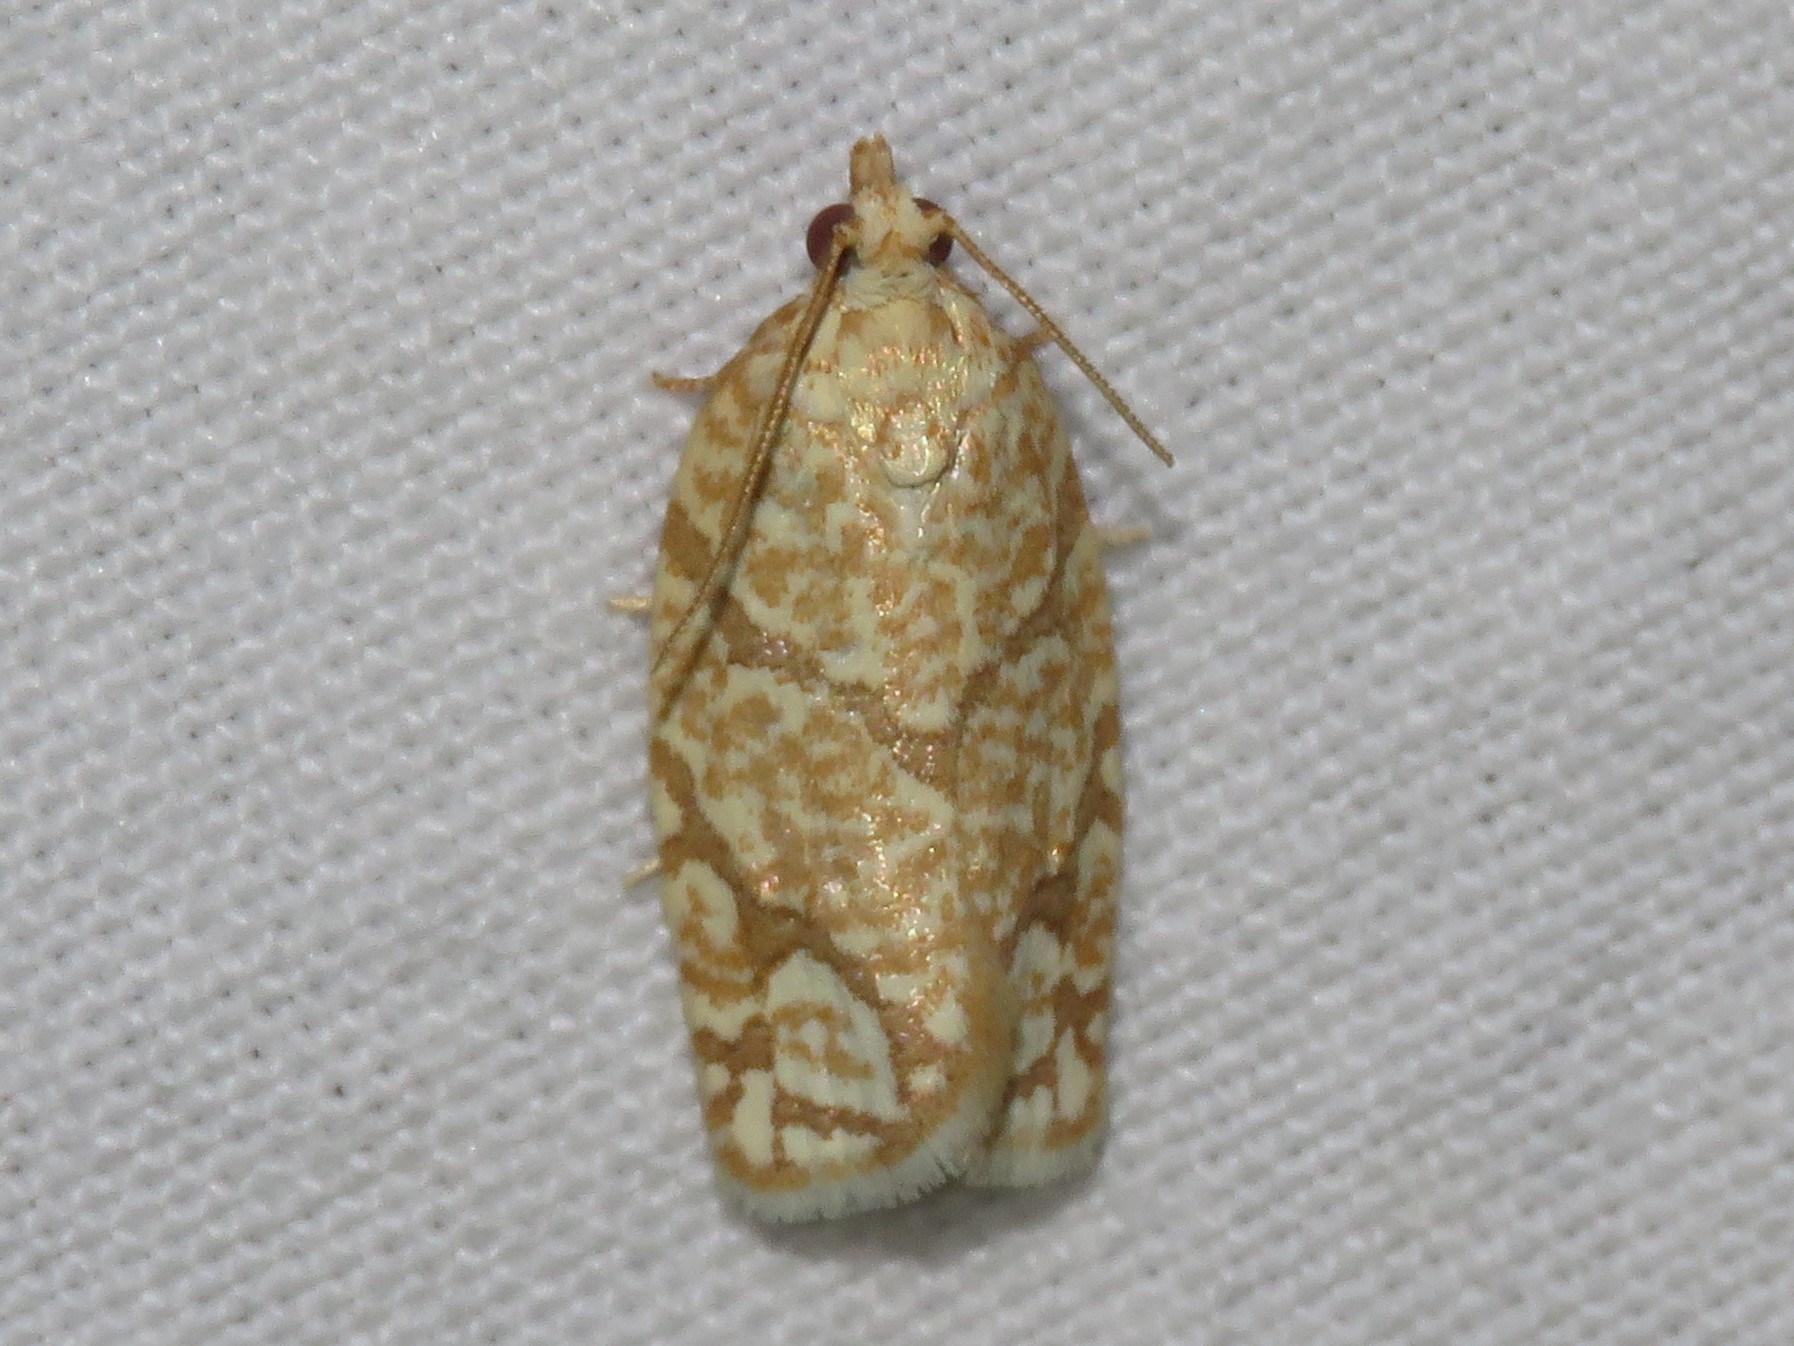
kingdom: Animalia
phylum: Arthropoda
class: Insecta
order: Lepidoptera
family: Tortricidae
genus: Argyrotaenia
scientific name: Argyrotaenia quercifoliana
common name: Yellow-winged oak leafroller moth
